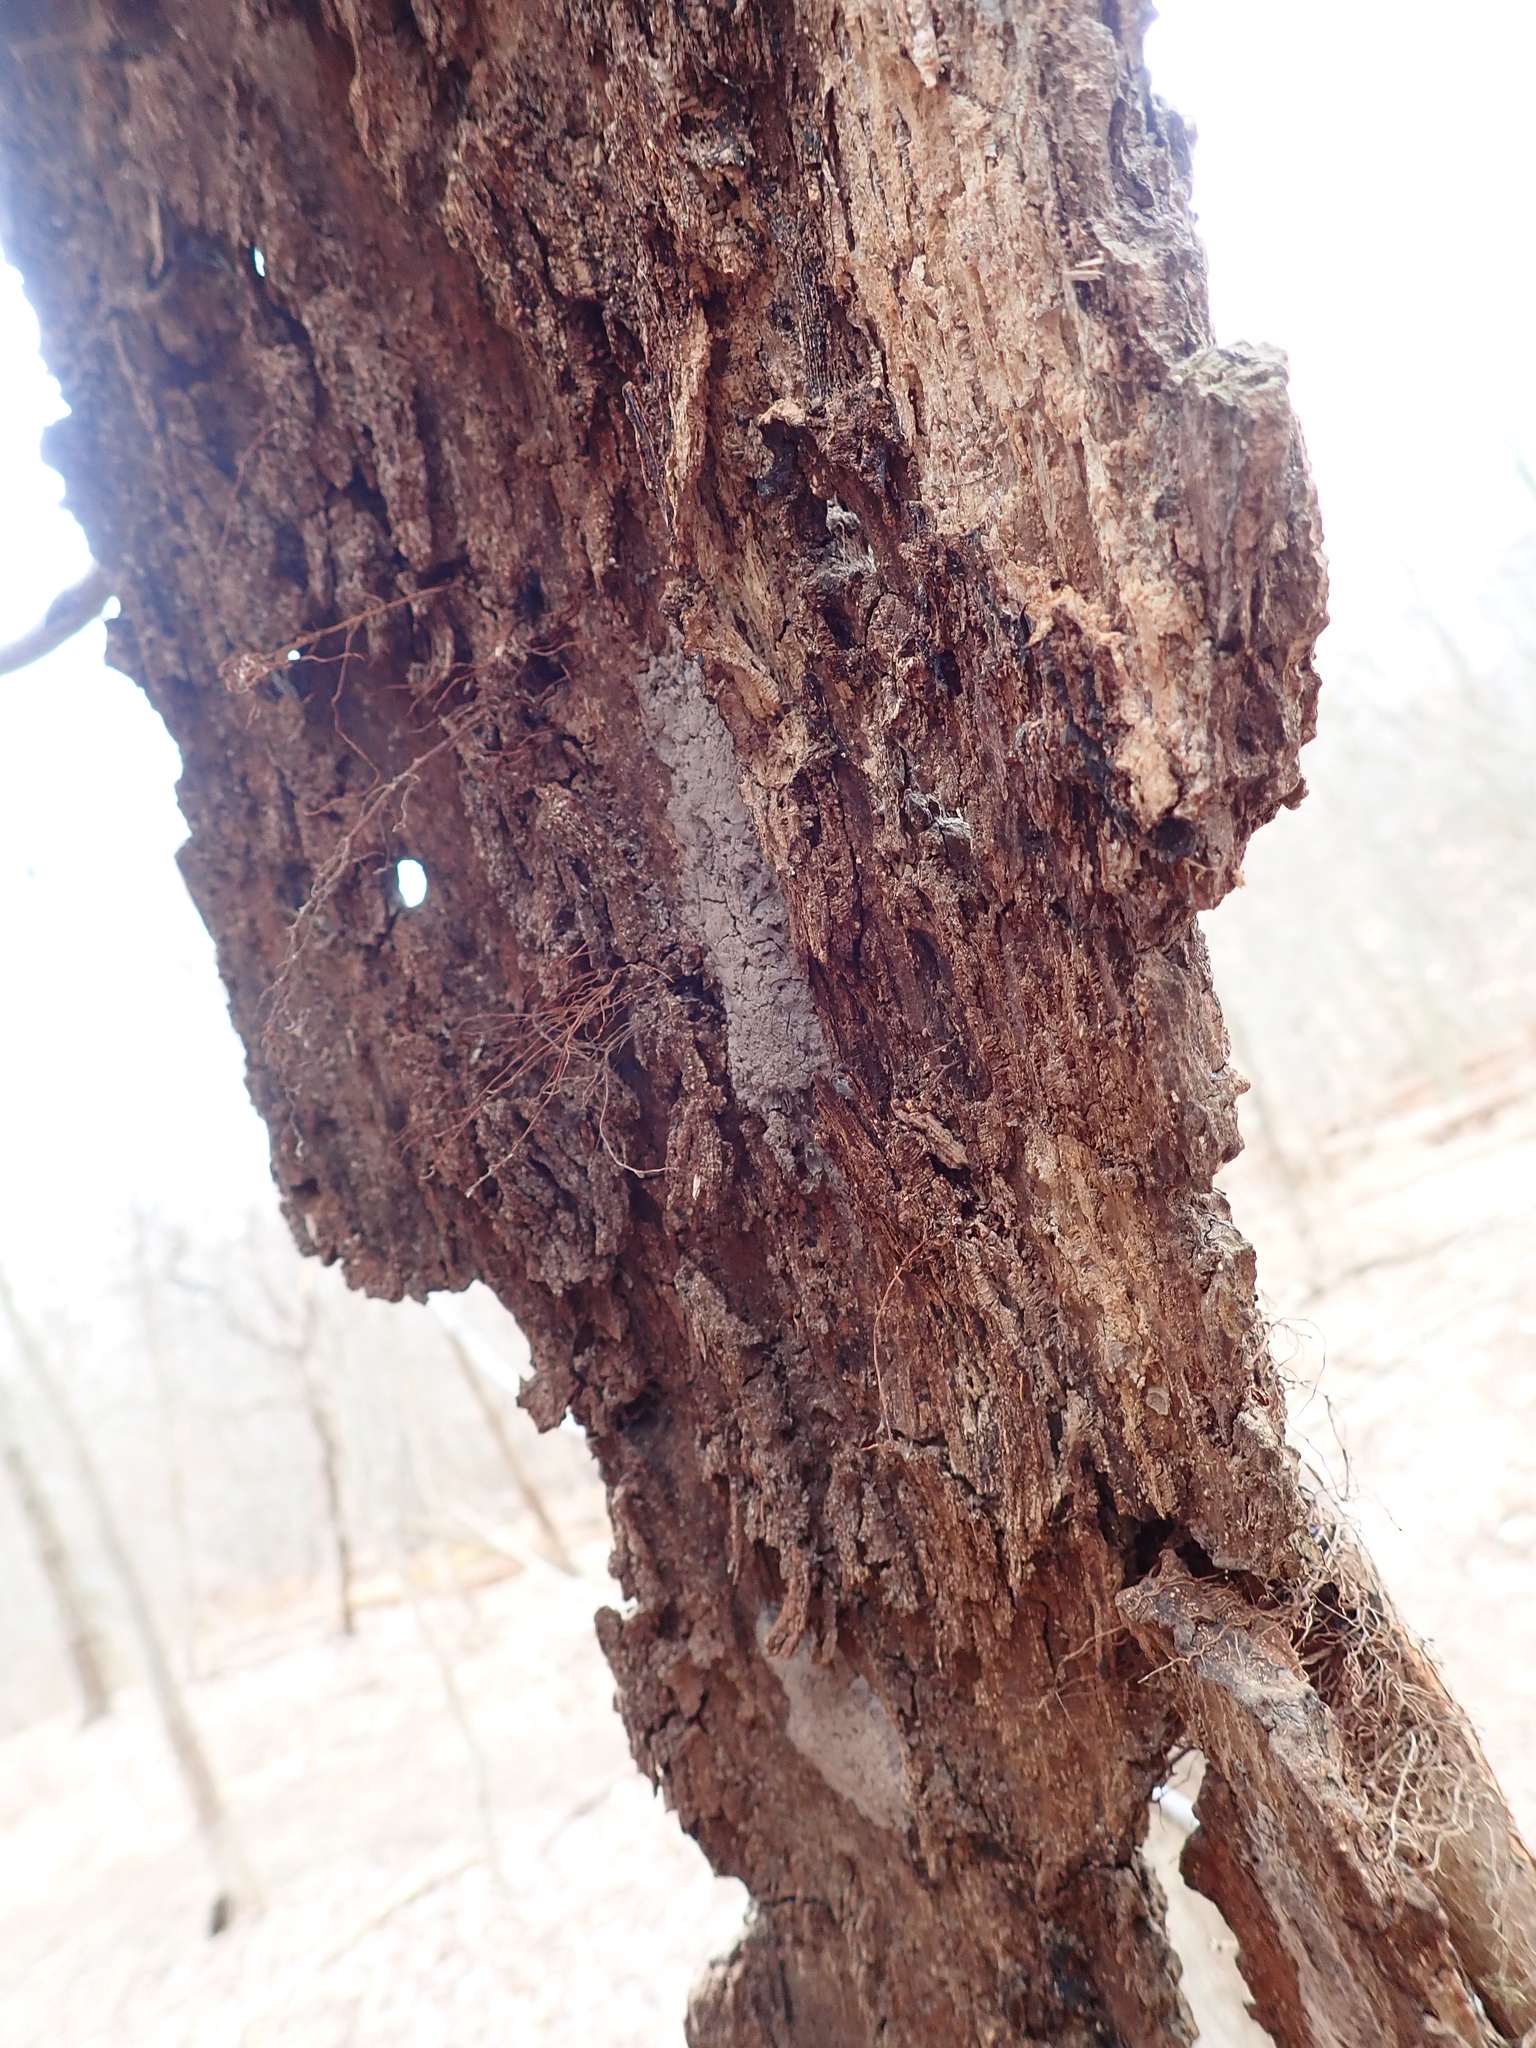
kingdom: Animalia
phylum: Arthropoda
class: Insecta
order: Hemiptera
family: Fulgoridae
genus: Lycorma
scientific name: Lycorma delicatula
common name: Spotted lanternfly
